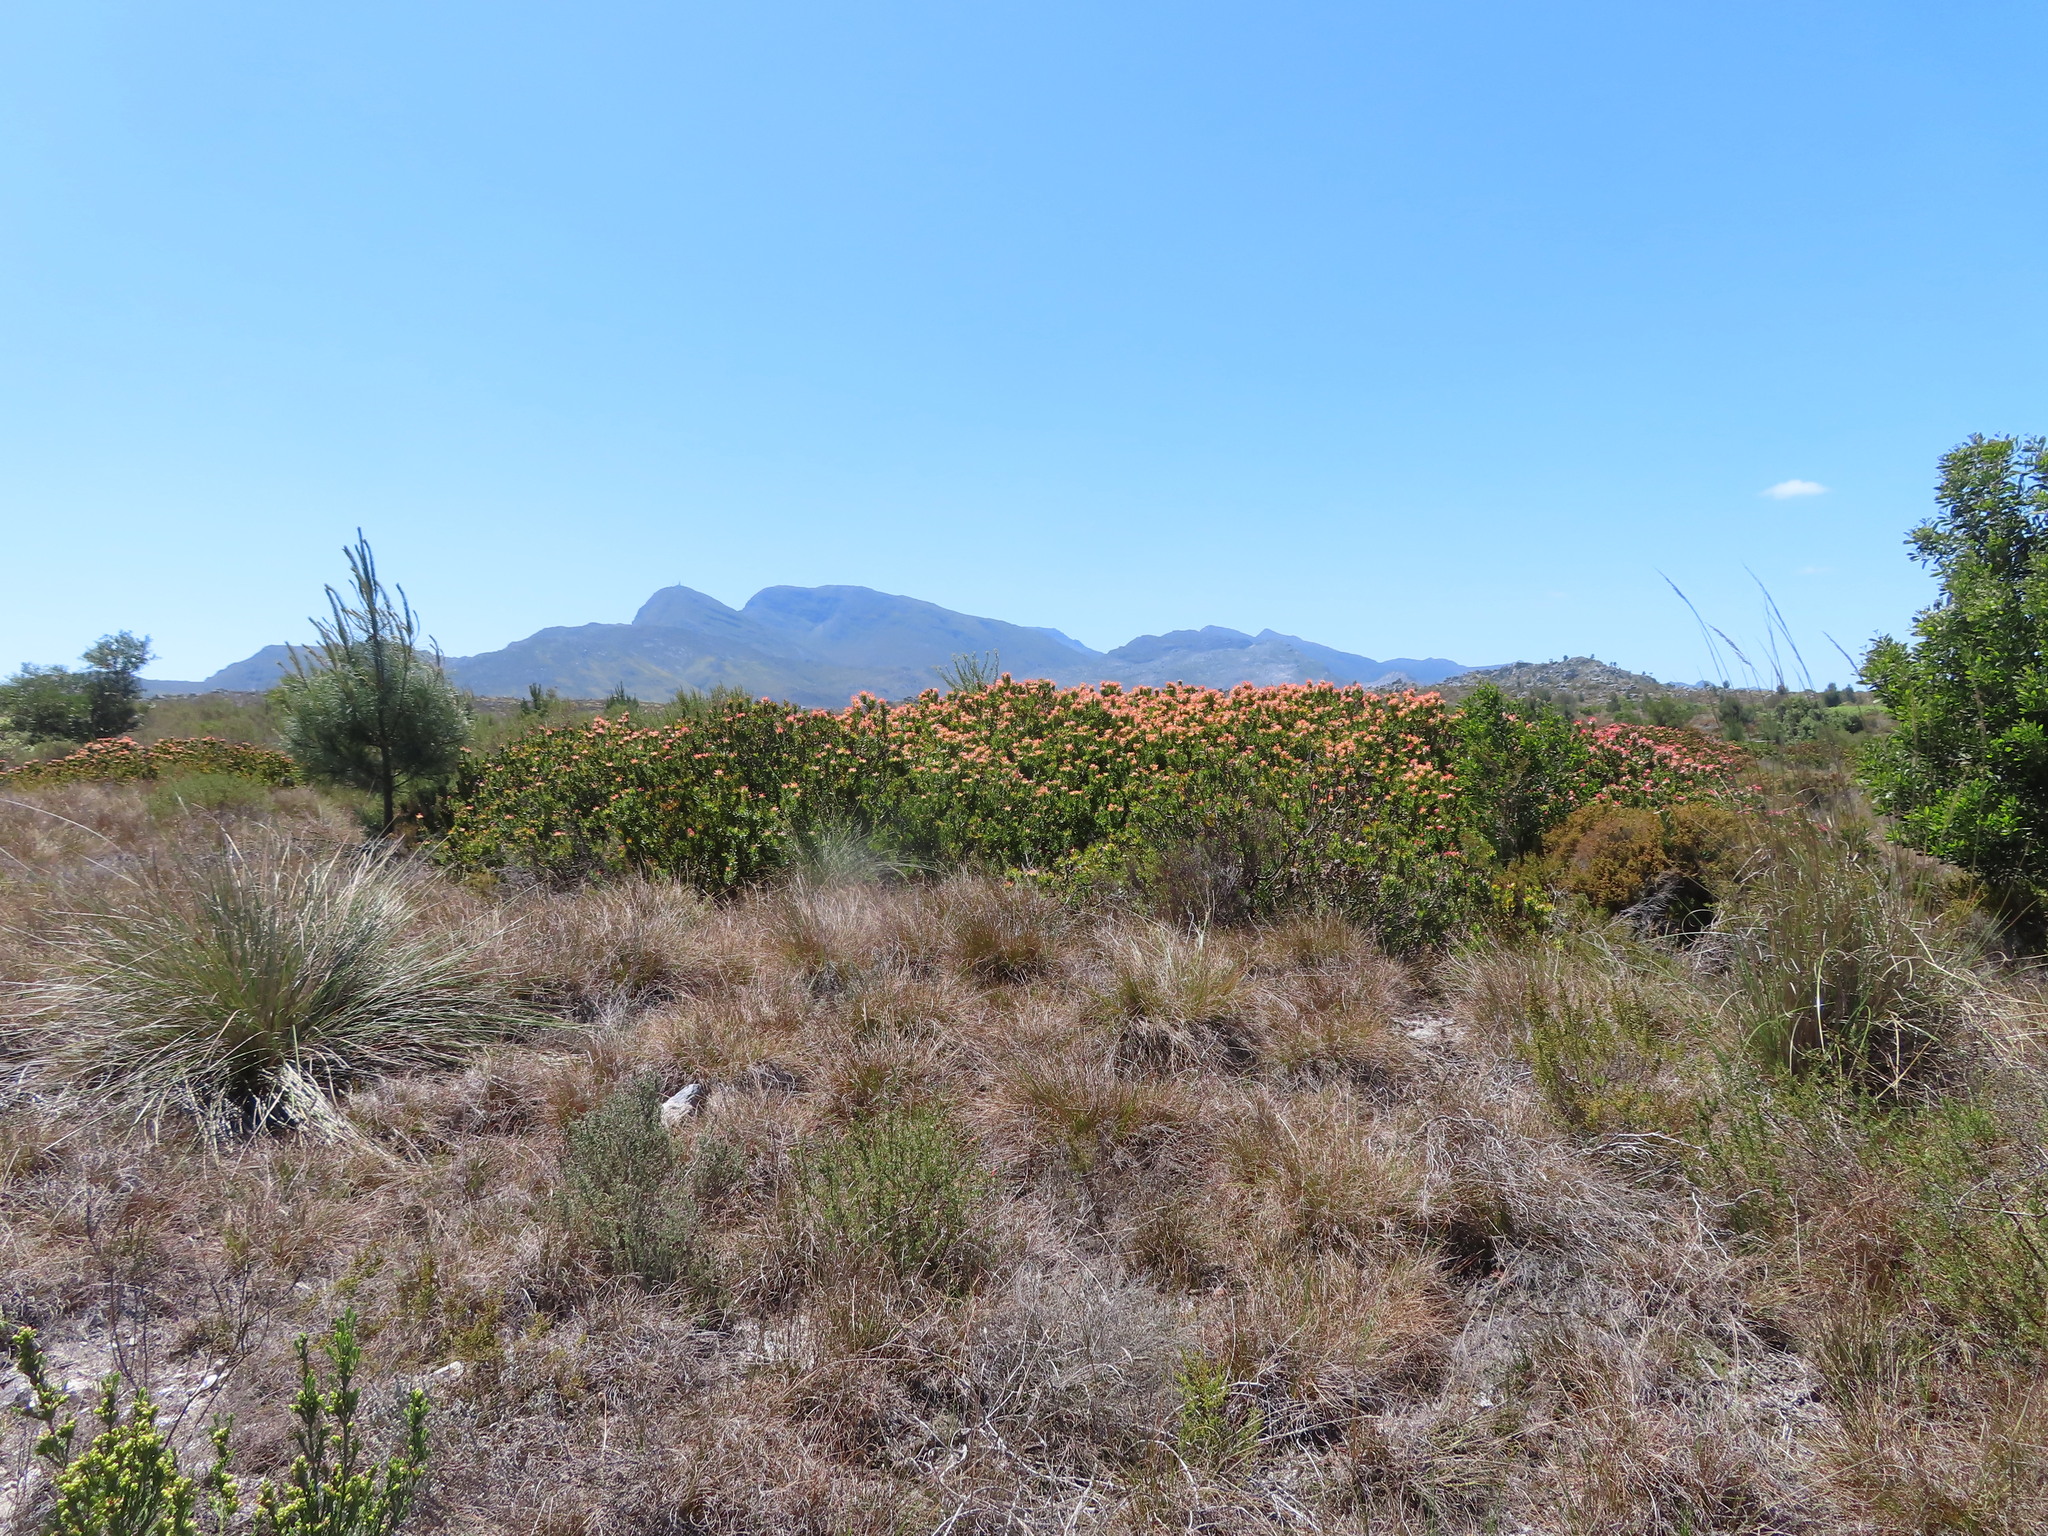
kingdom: Plantae
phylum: Tracheophyta
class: Magnoliopsida
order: Proteales
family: Proteaceae
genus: Mimetes
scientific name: Mimetes cucullatus
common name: Common pagoda
